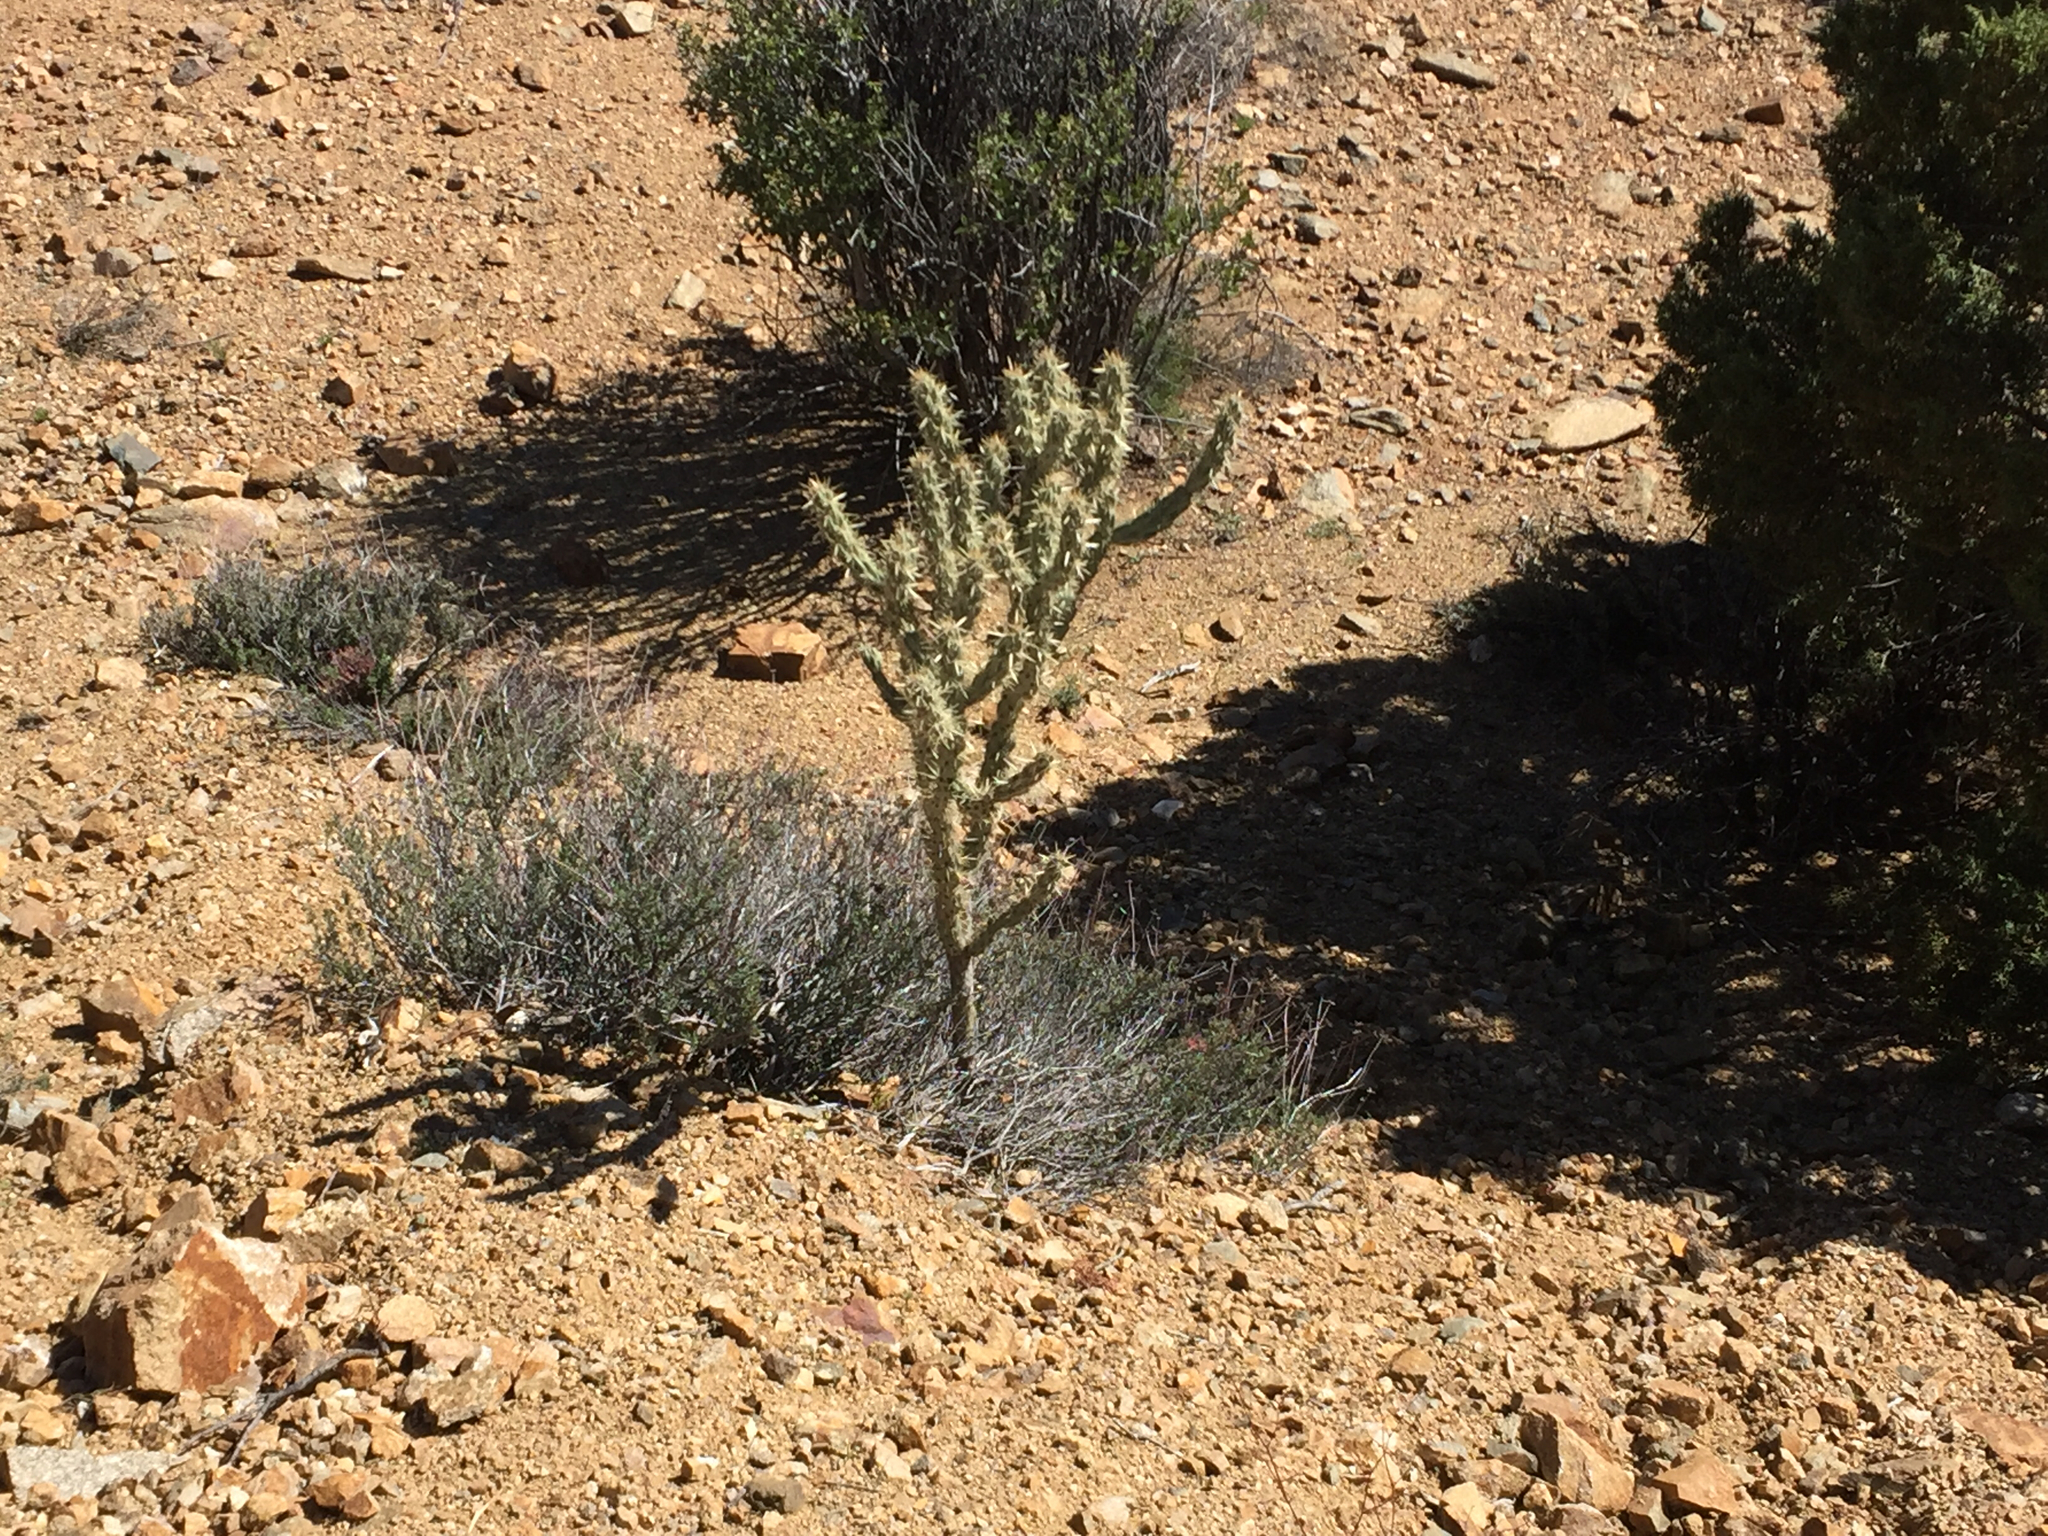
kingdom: Plantae
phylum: Tracheophyta
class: Magnoliopsida
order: Caryophyllales
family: Cactaceae
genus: Cylindropuntia
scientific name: Cylindropuntia acanthocarpa
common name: Buckhorn cholla
